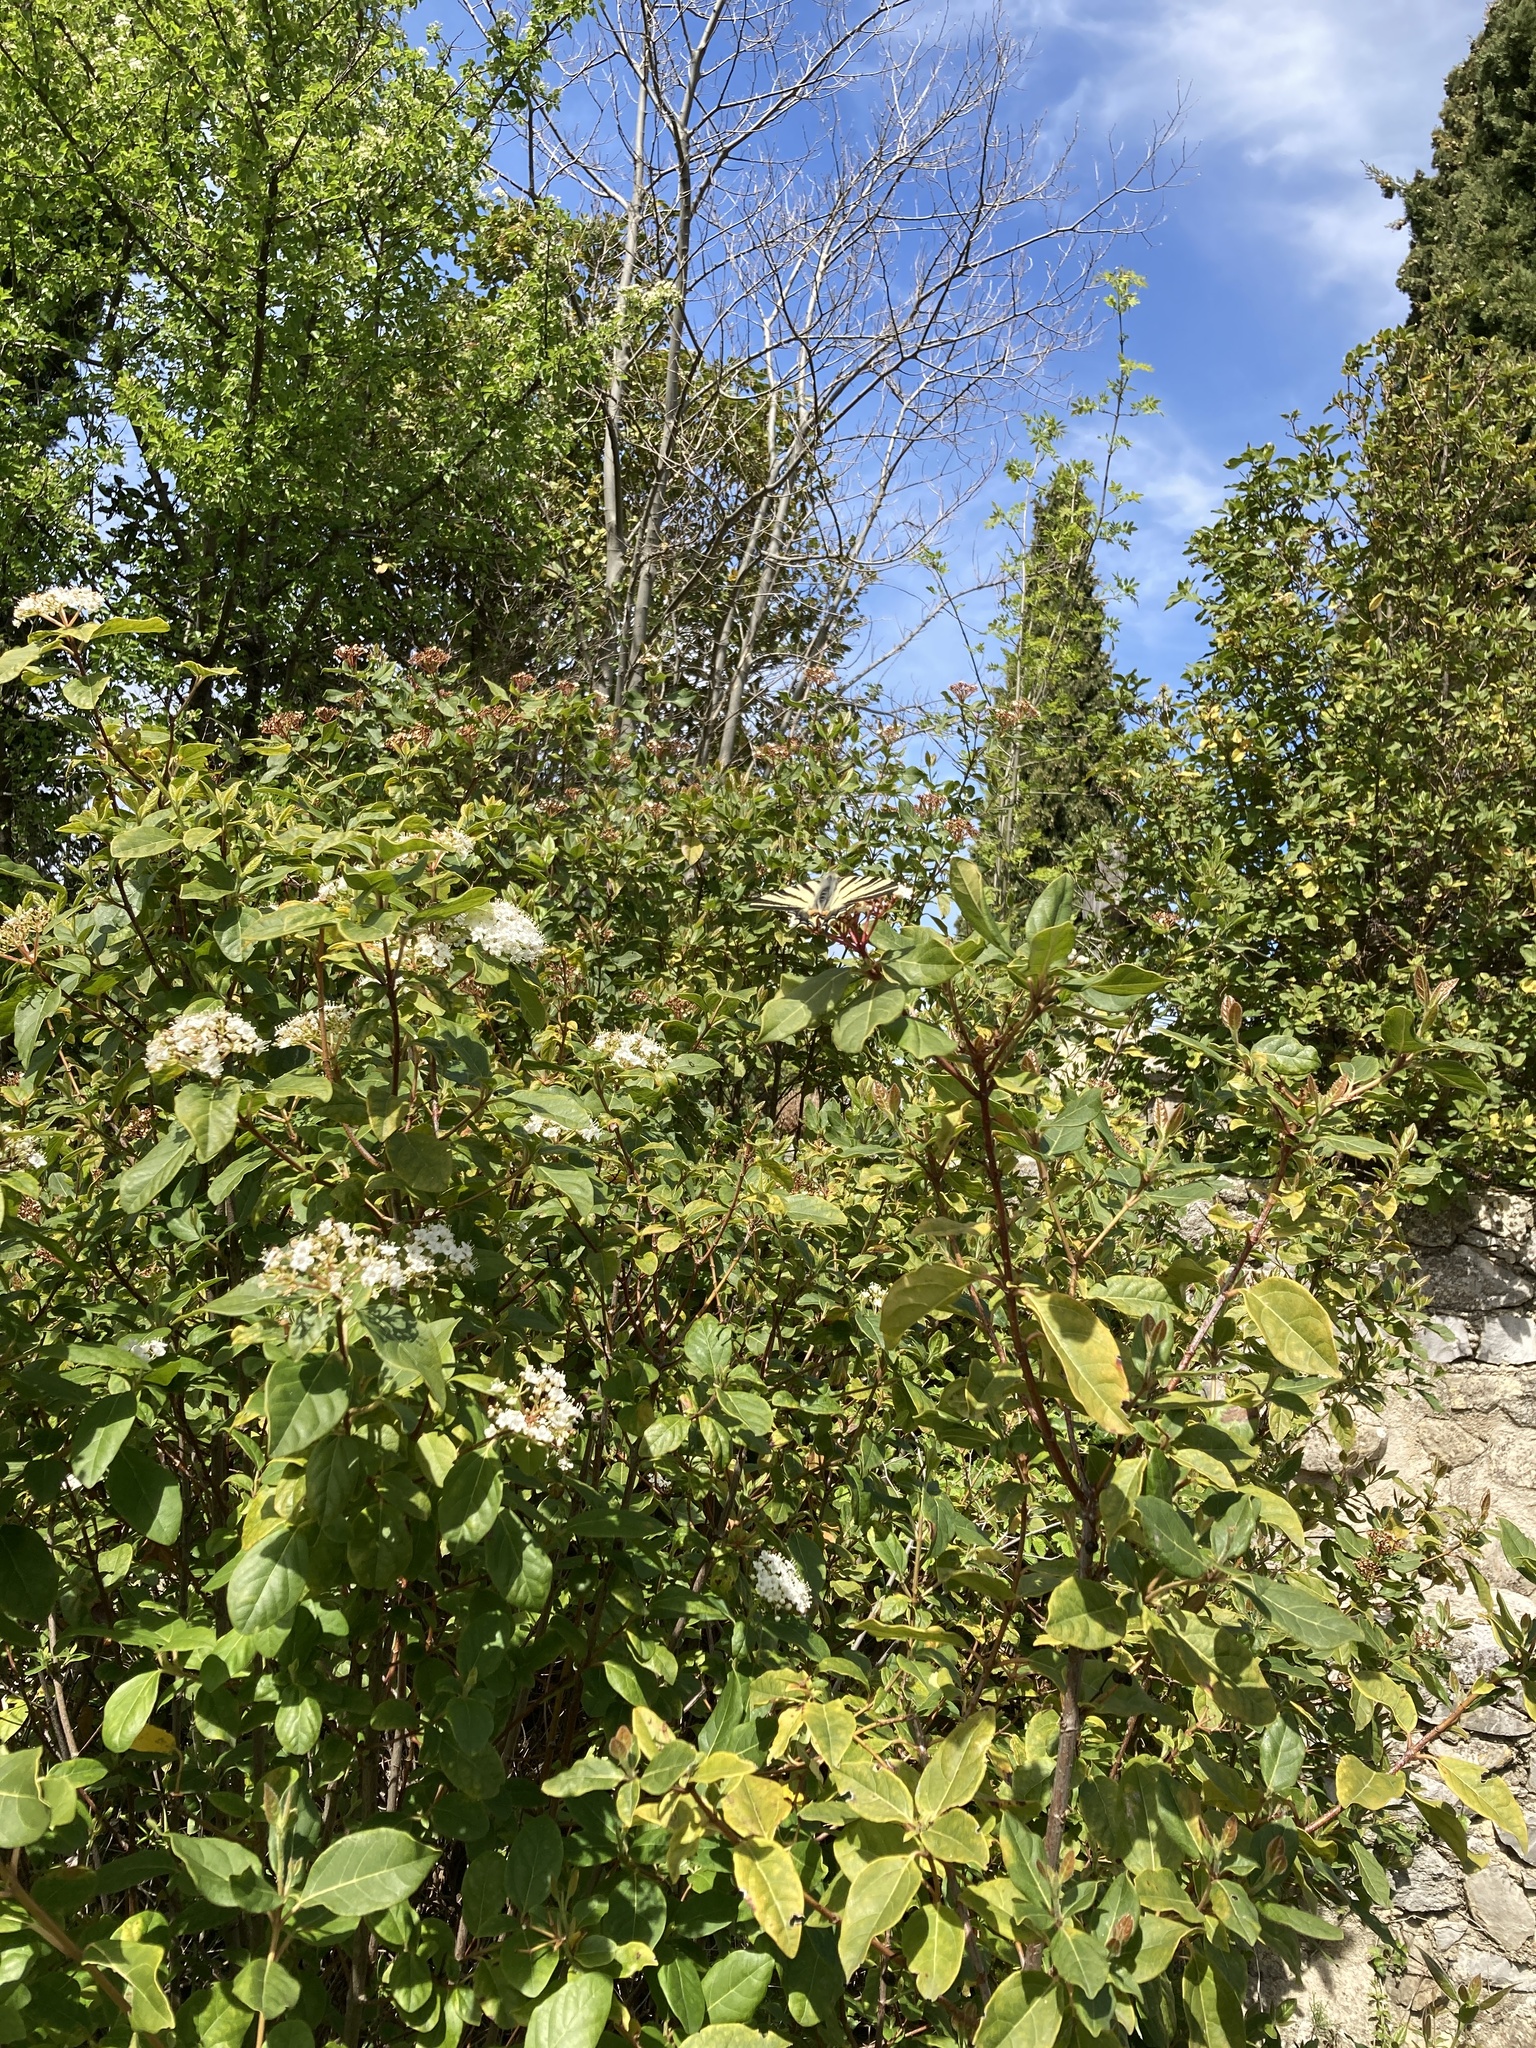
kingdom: Animalia
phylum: Arthropoda
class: Insecta
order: Lepidoptera
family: Papilionidae
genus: Iphiclides
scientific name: Iphiclides podalirius
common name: Scarce swallowtail
